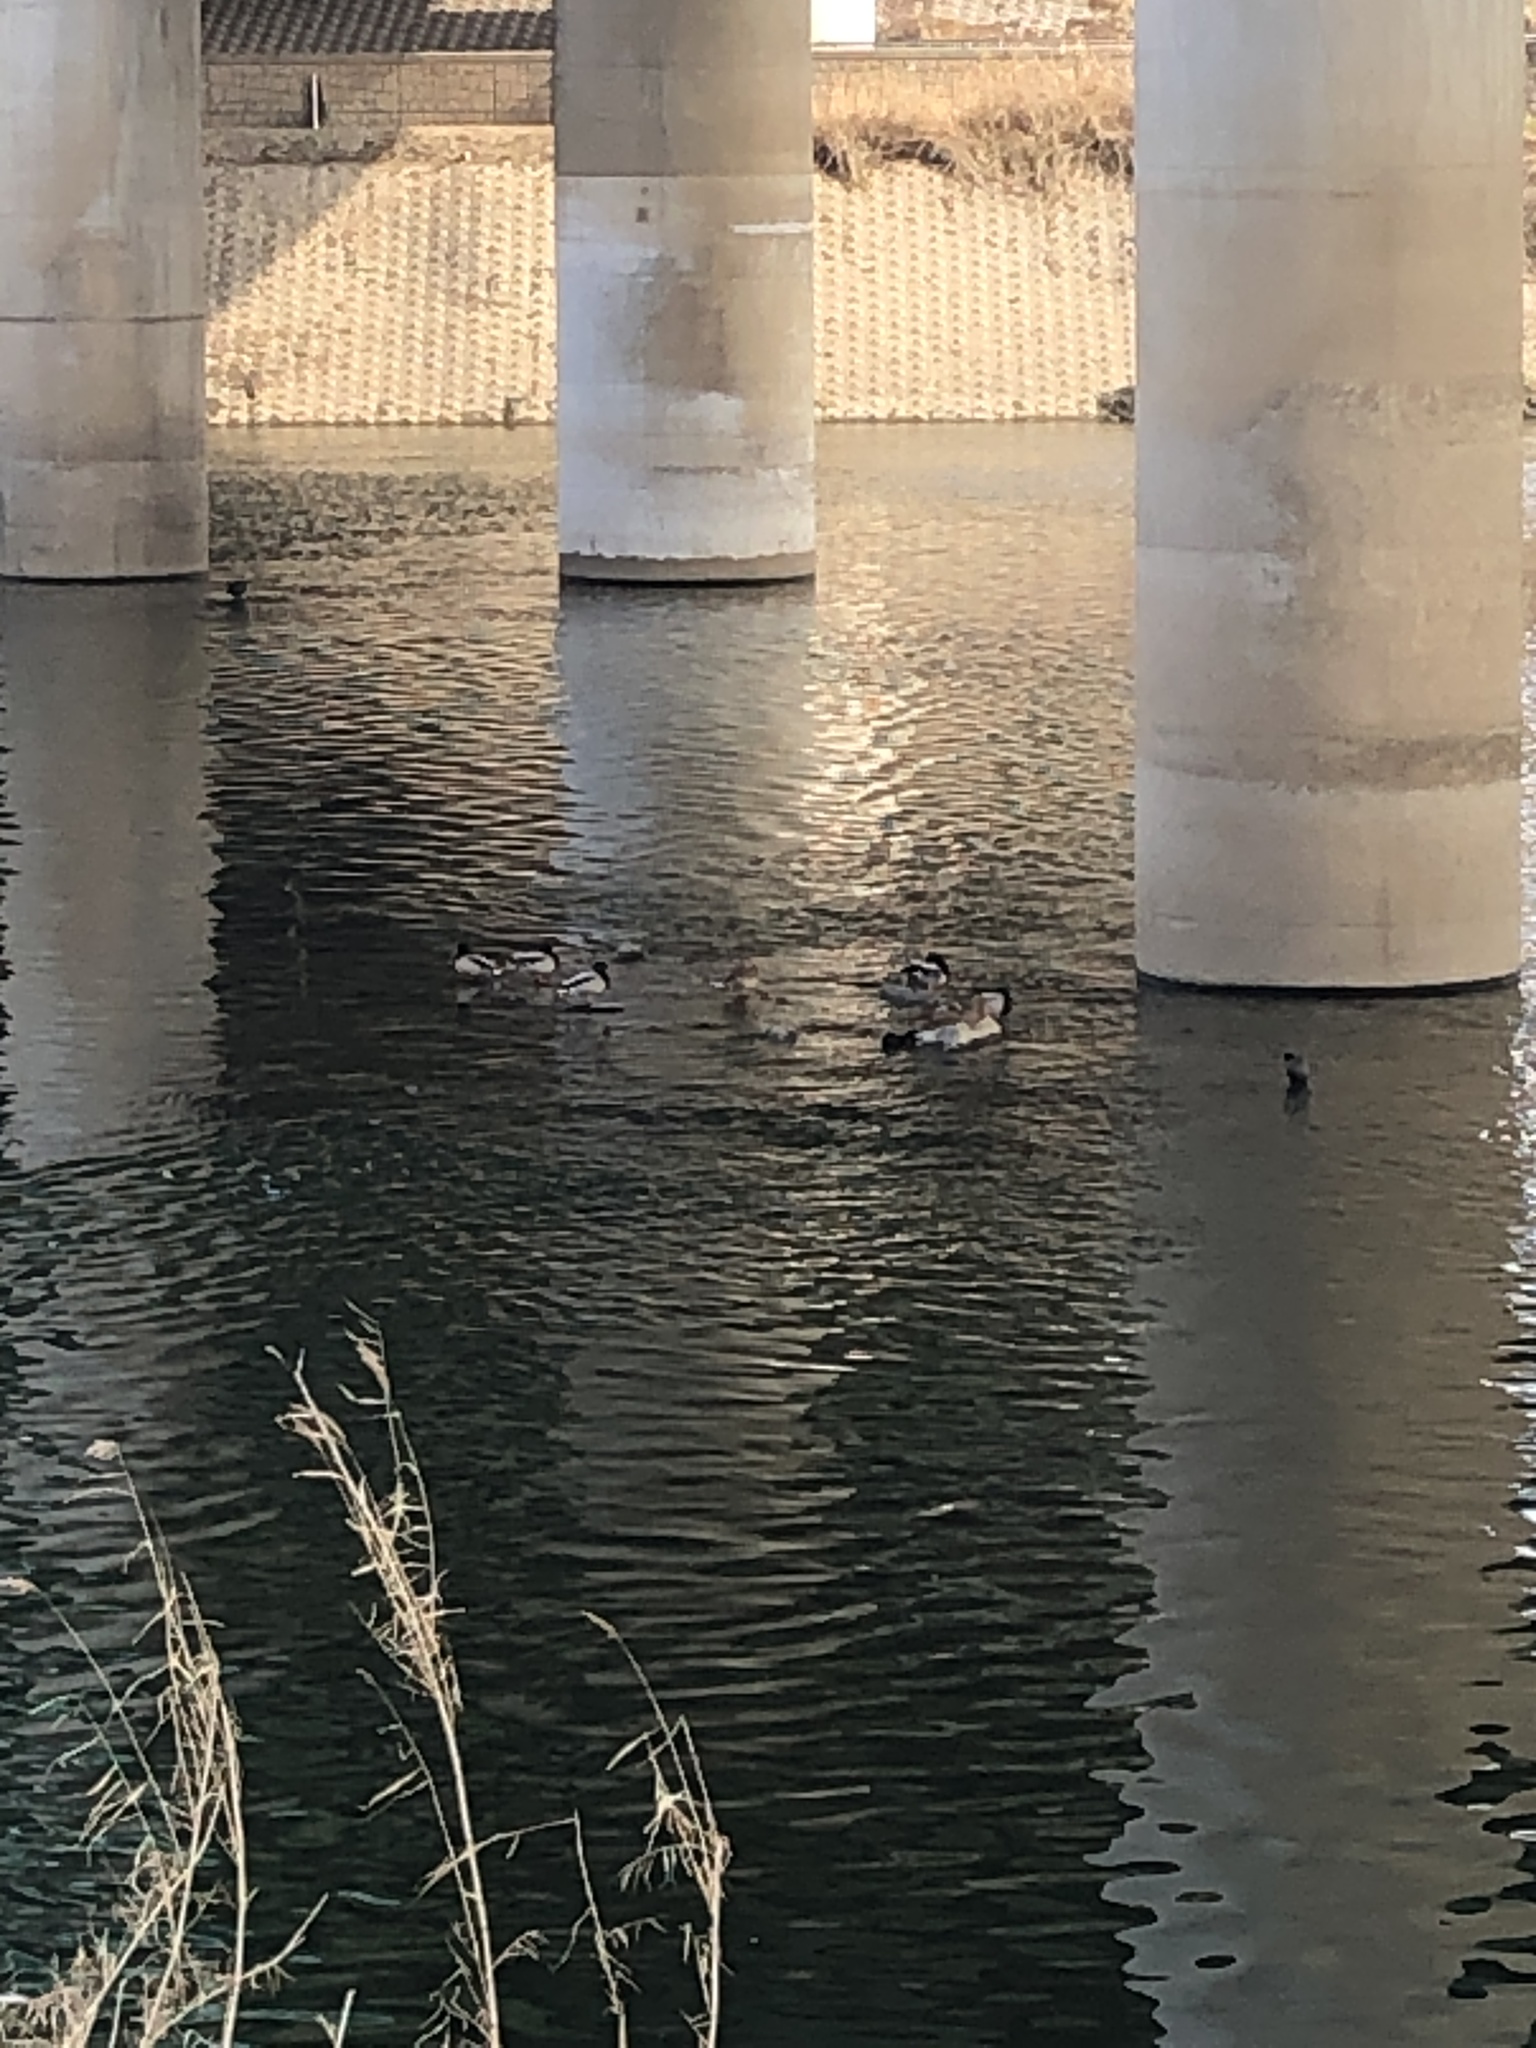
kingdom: Animalia
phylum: Chordata
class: Aves
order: Anseriformes
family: Anatidae
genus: Anas
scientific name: Anas platyrhynchos
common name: Mallard
